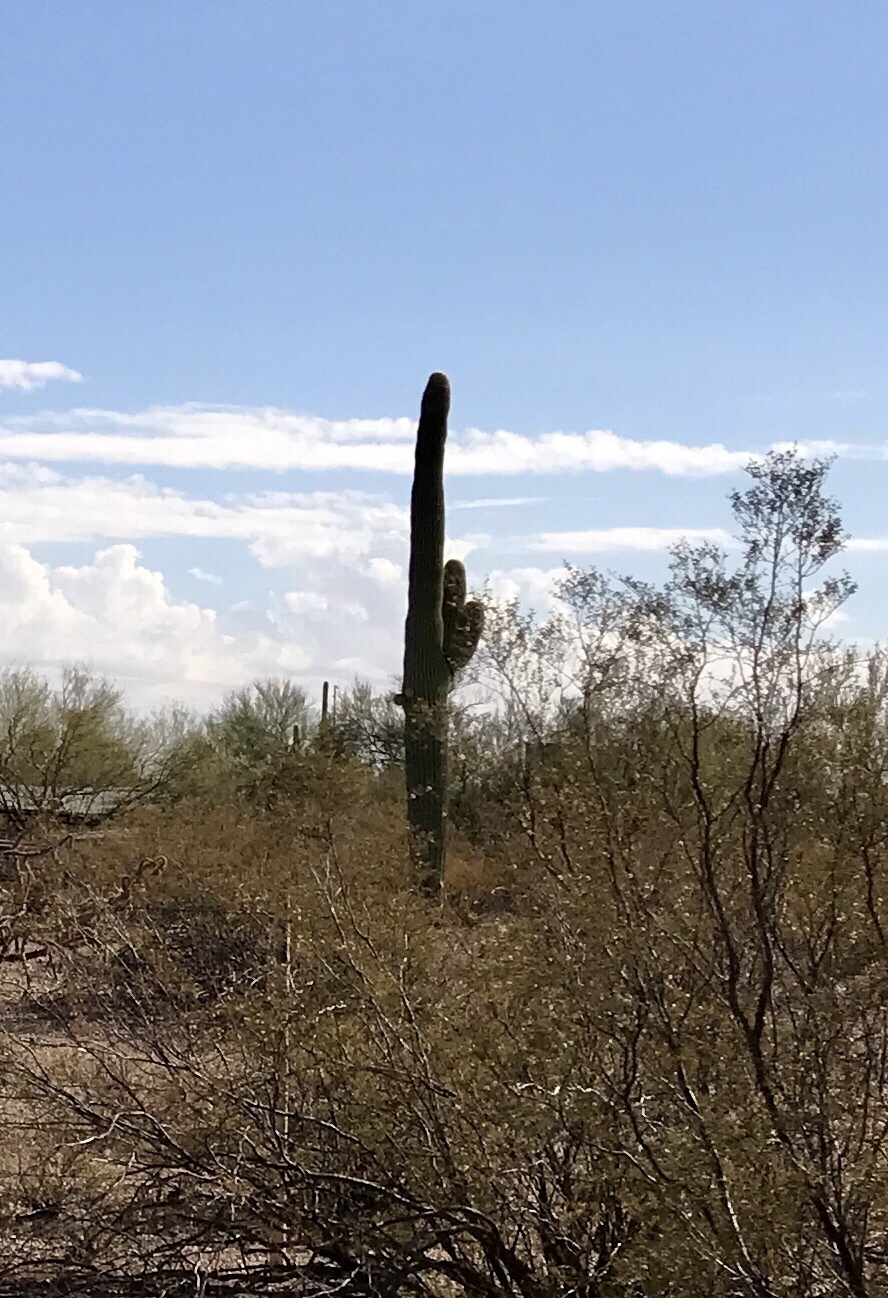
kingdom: Plantae
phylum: Tracheophyta
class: Magnoliopsida
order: Caryophyllales
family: Cactaceae
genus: Carnegiea
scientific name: Carnegiea gigantea
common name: Saguaro
